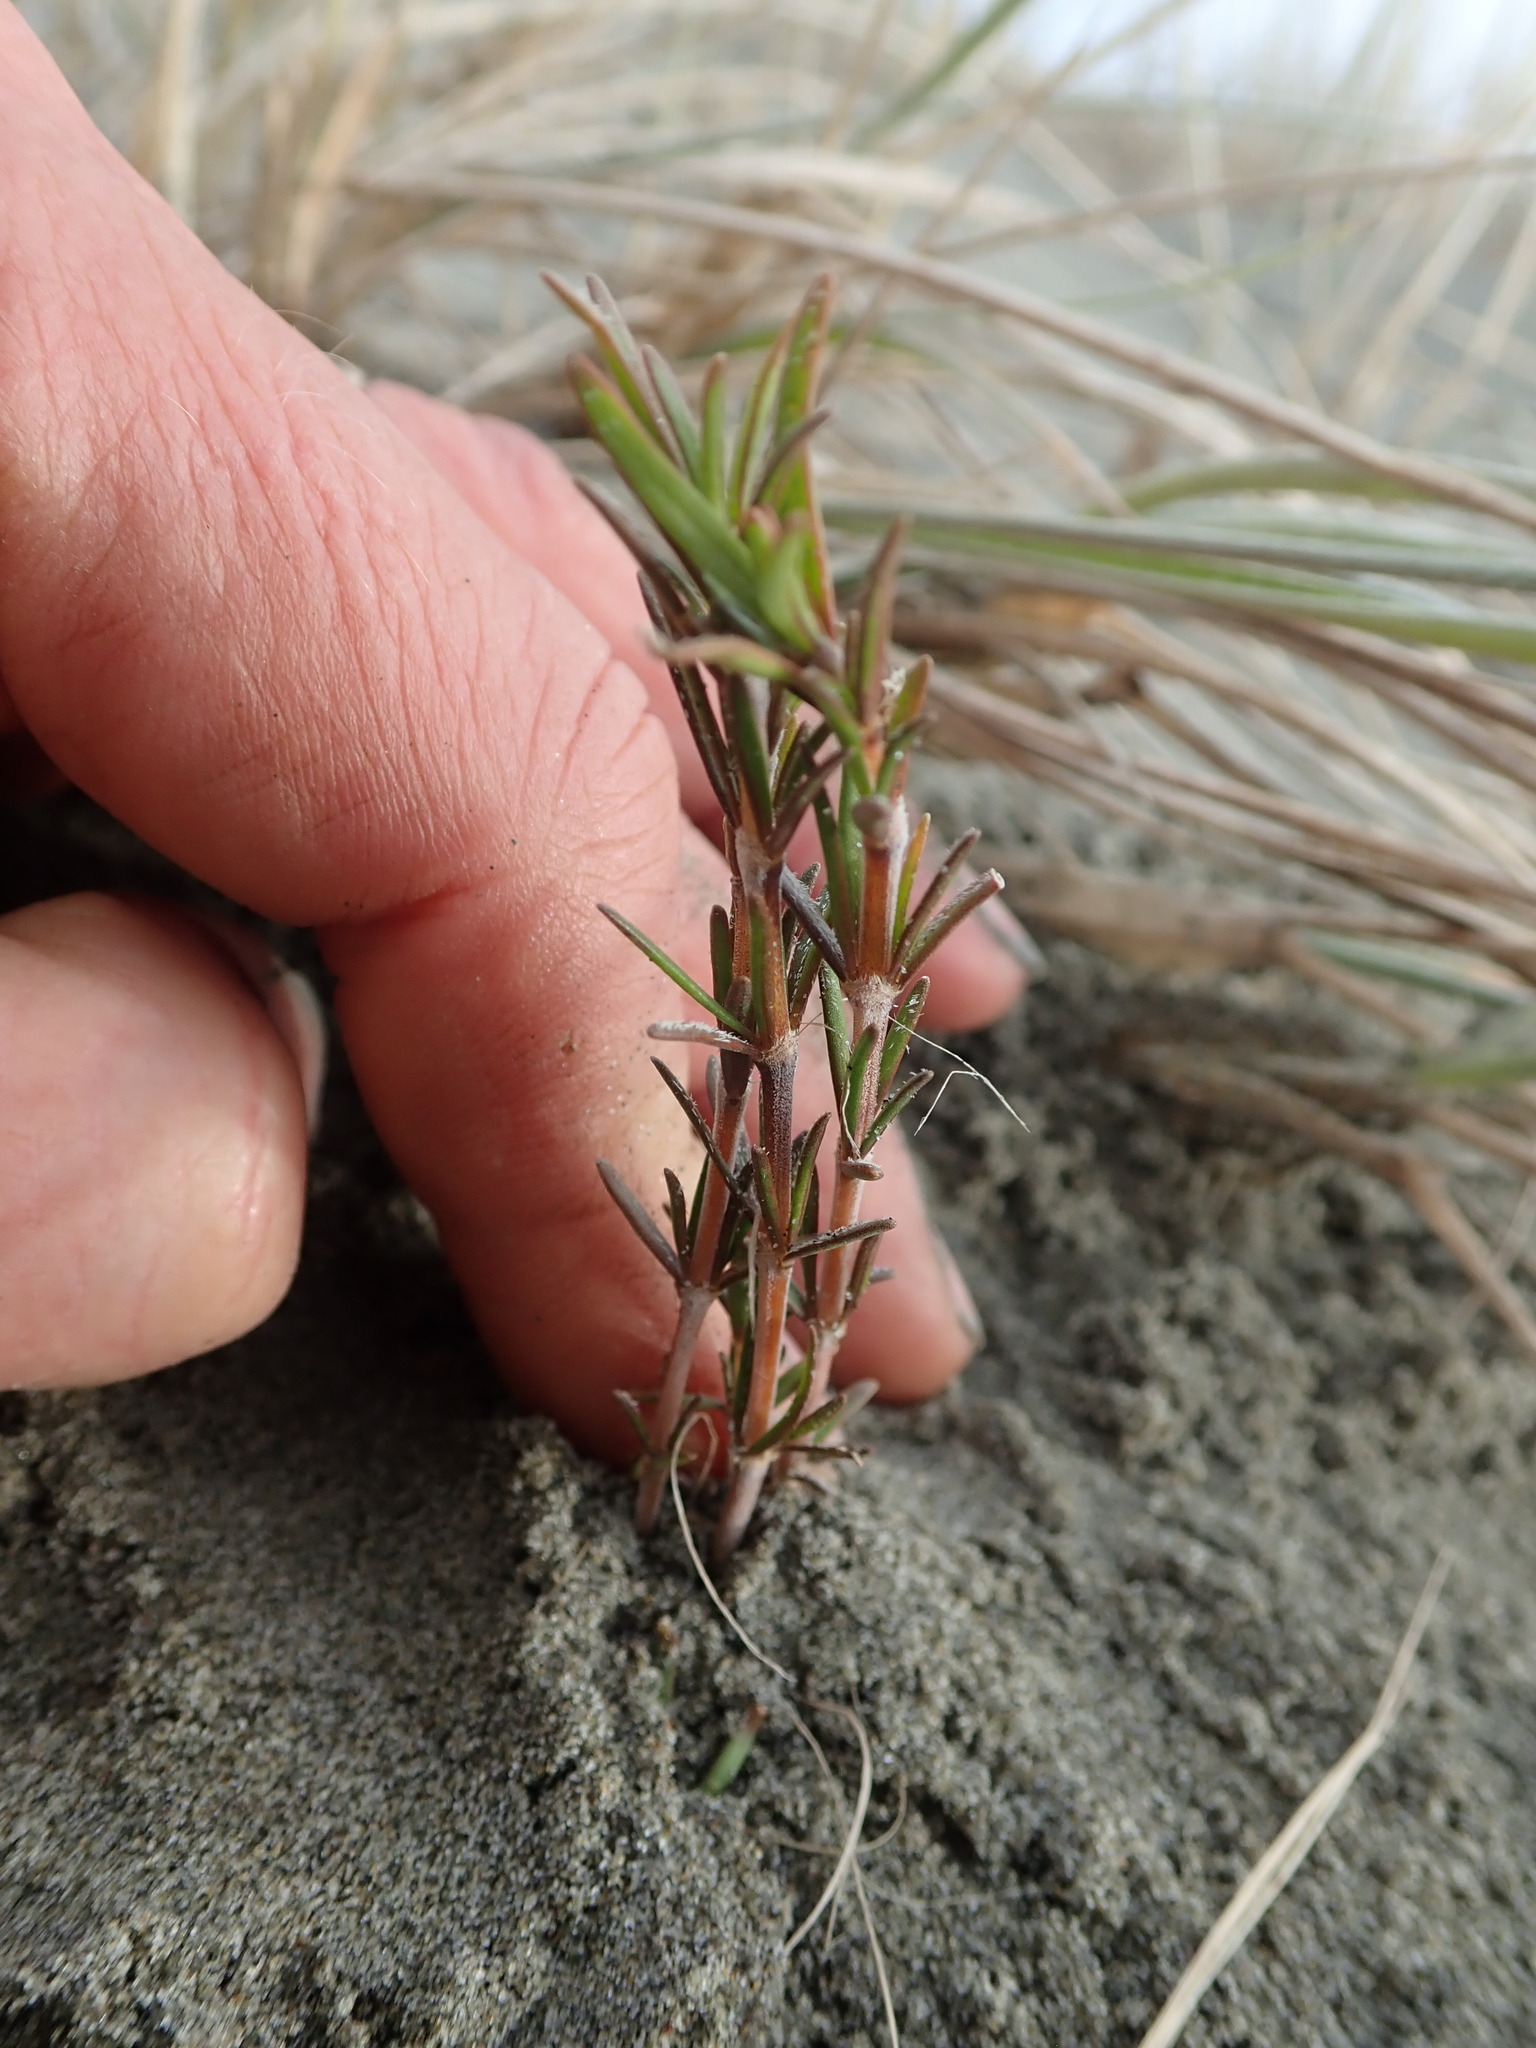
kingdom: Plantae
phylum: Tracheophyta
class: Magnoliopsida
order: Gentianales
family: Rubiaceae
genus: Coprosma
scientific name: Coprosma acerosa
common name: Sand coprosma
